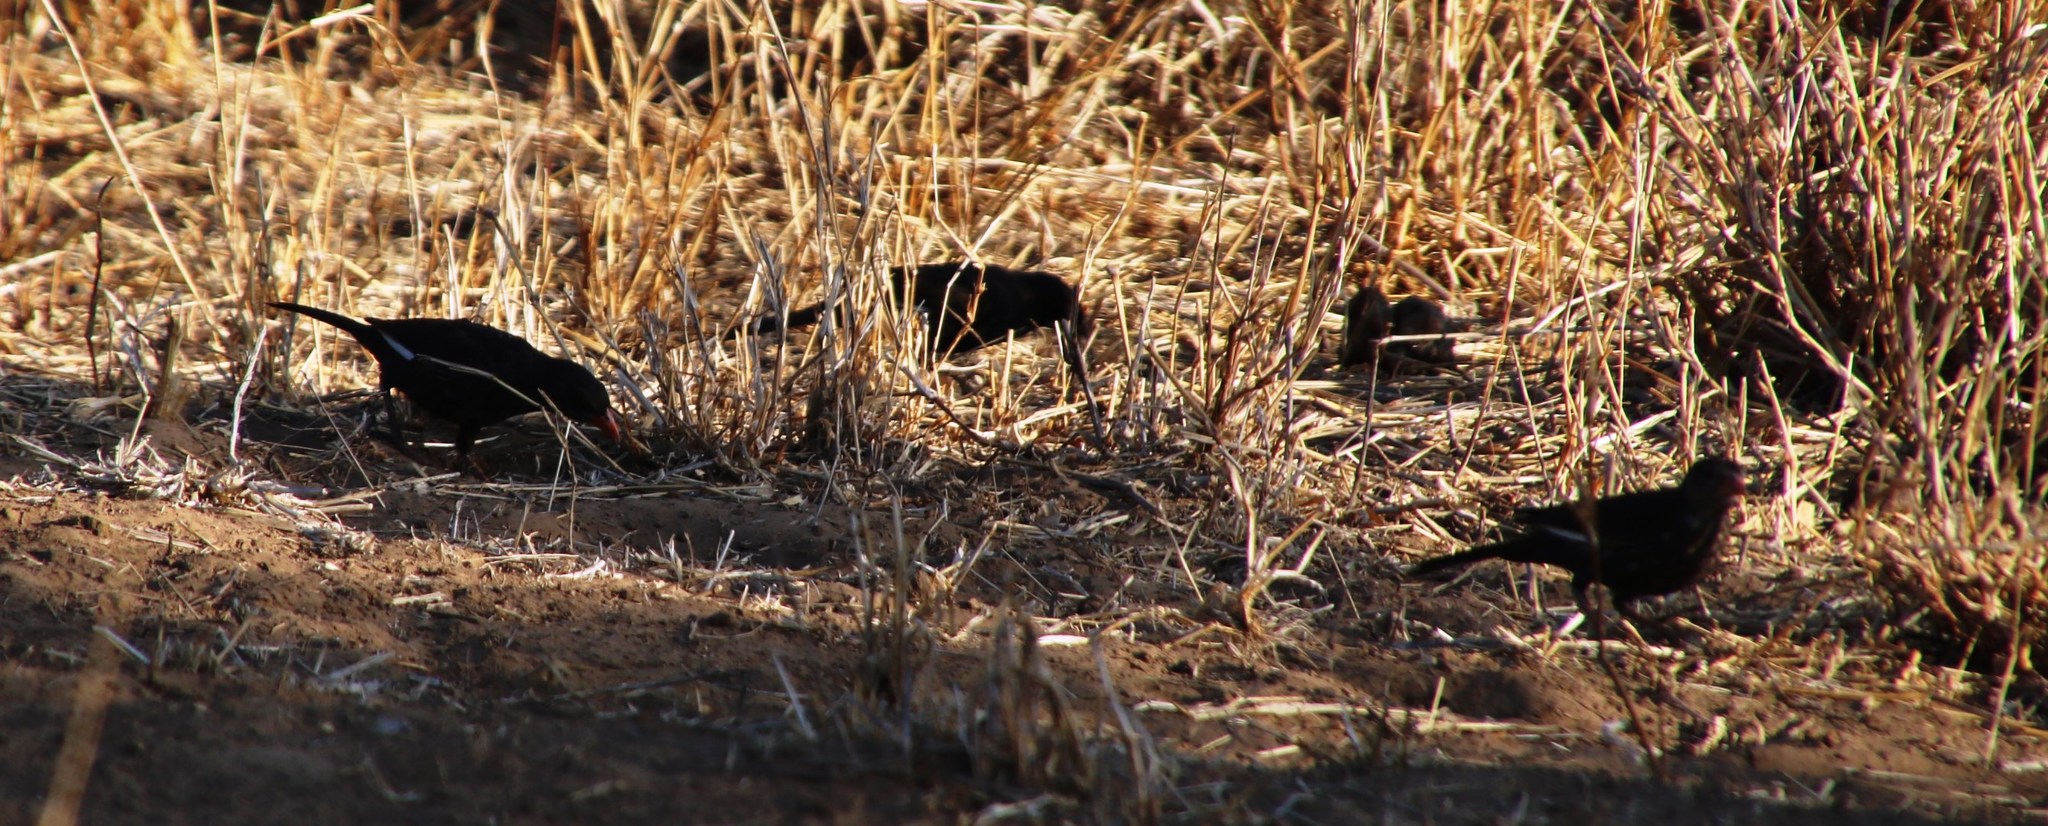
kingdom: Animalia
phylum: Chordata
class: Aves
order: Passeriformes
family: Ploceidae
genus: Bubalornis
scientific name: Bubalornis niger
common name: Red-billed buffalo weaver
